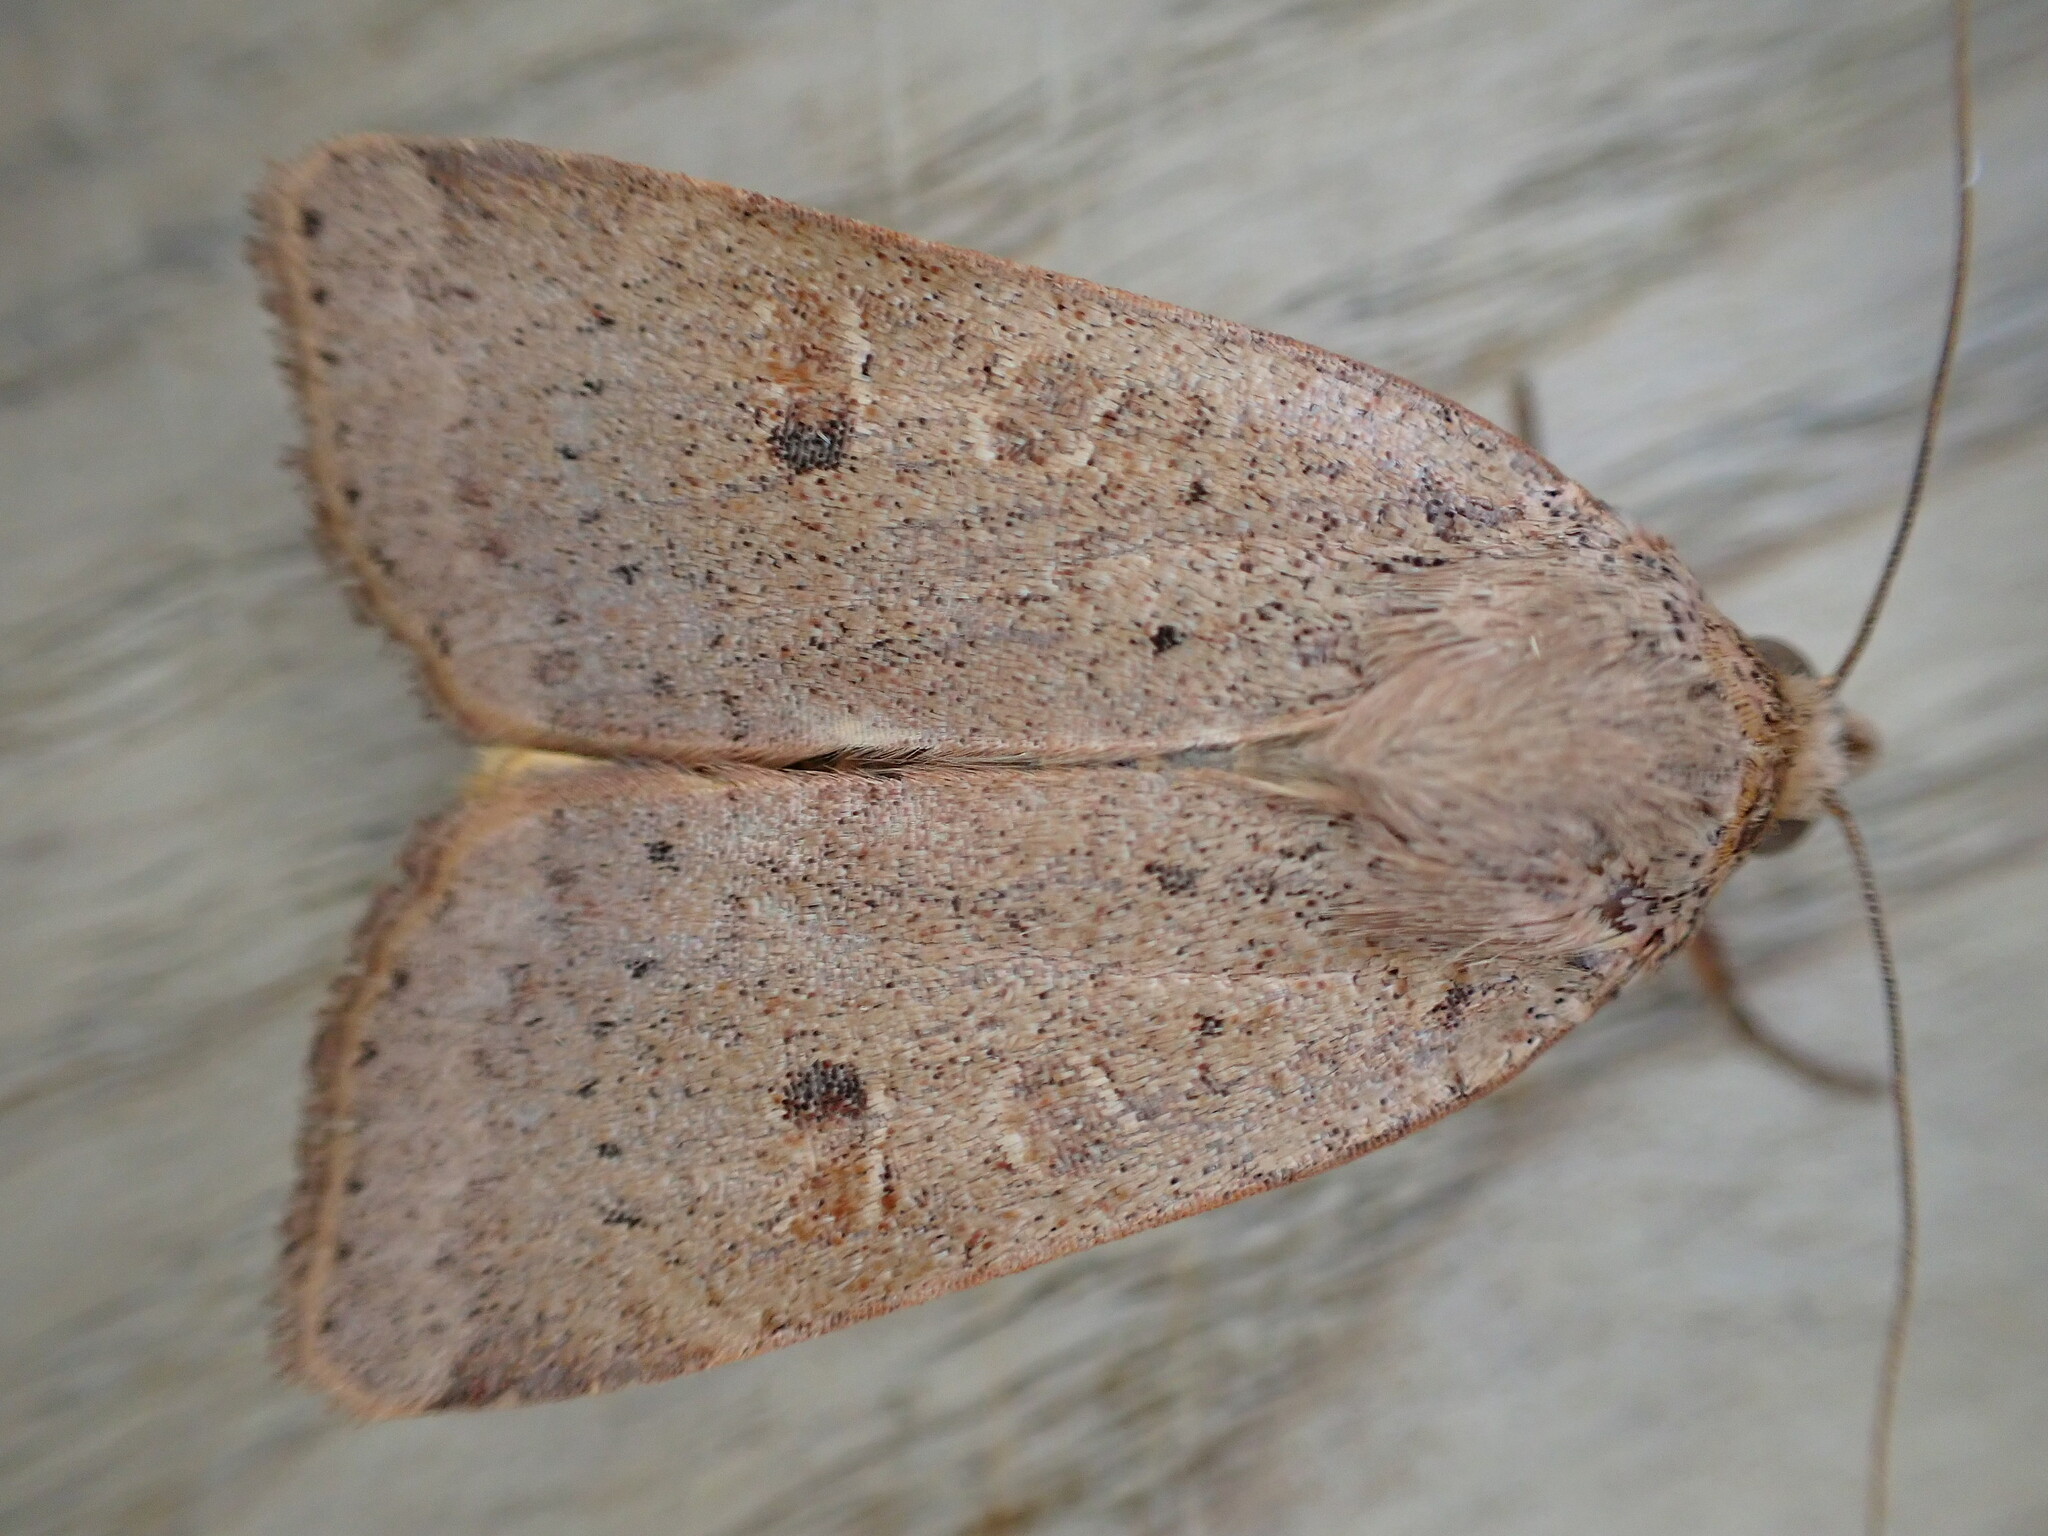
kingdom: Animalia
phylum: Arthropoda
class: Insecta
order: Lepidoptera
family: Noctuidae
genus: Noctua
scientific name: Noctua comes
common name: Lesser yellow underwing
